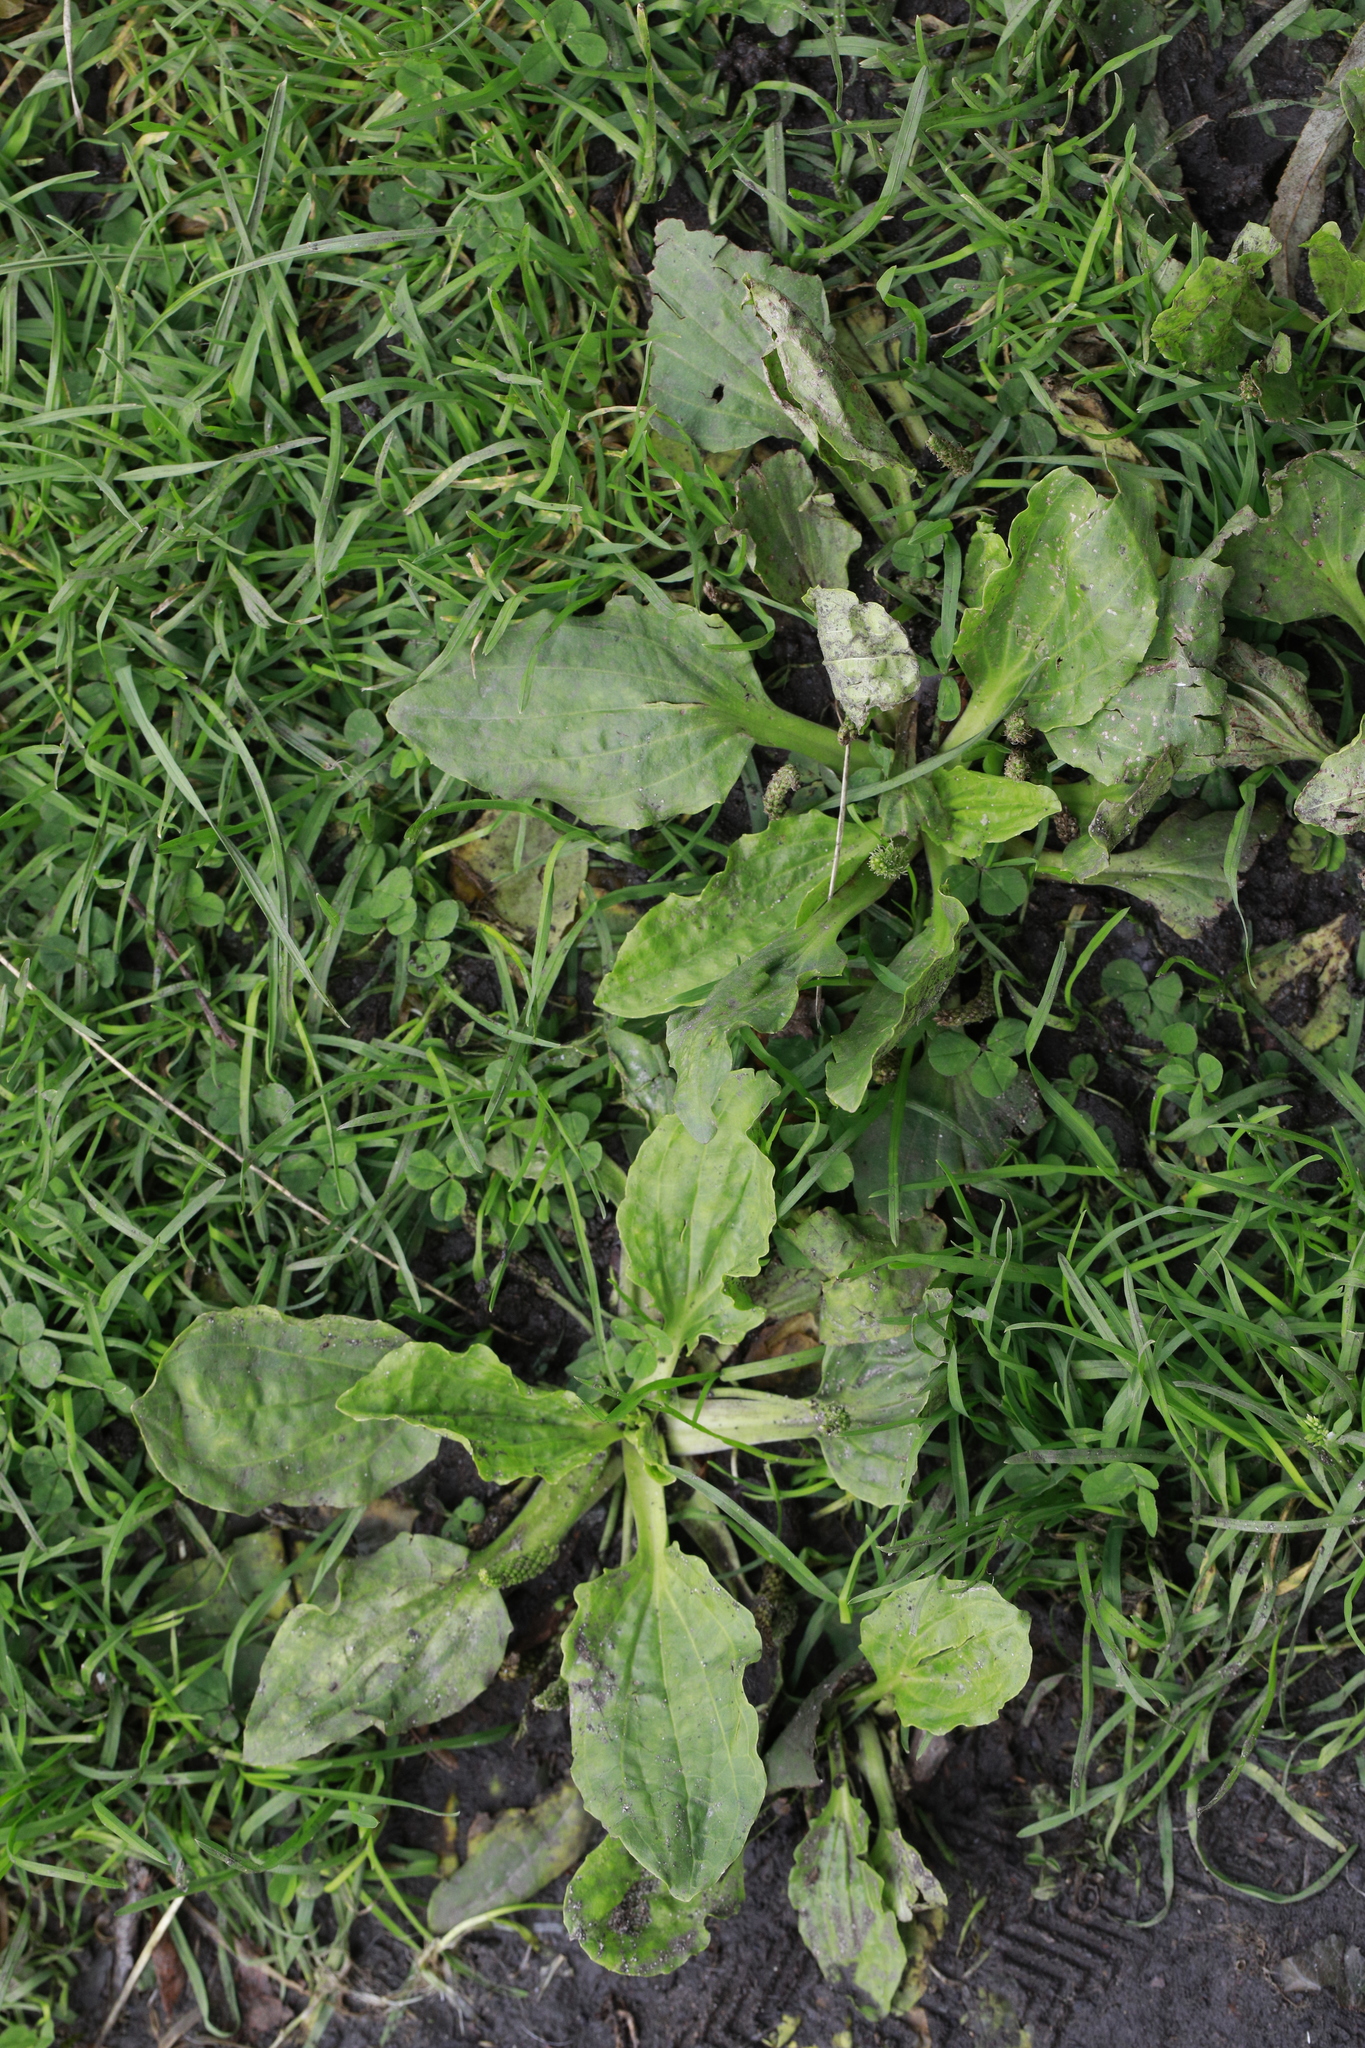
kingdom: Plantae
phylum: Tracheophyta
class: Magnoliopsida
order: Lamiales
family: Plantaginaceae
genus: Plantago
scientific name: Plantago major
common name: Common plantain
